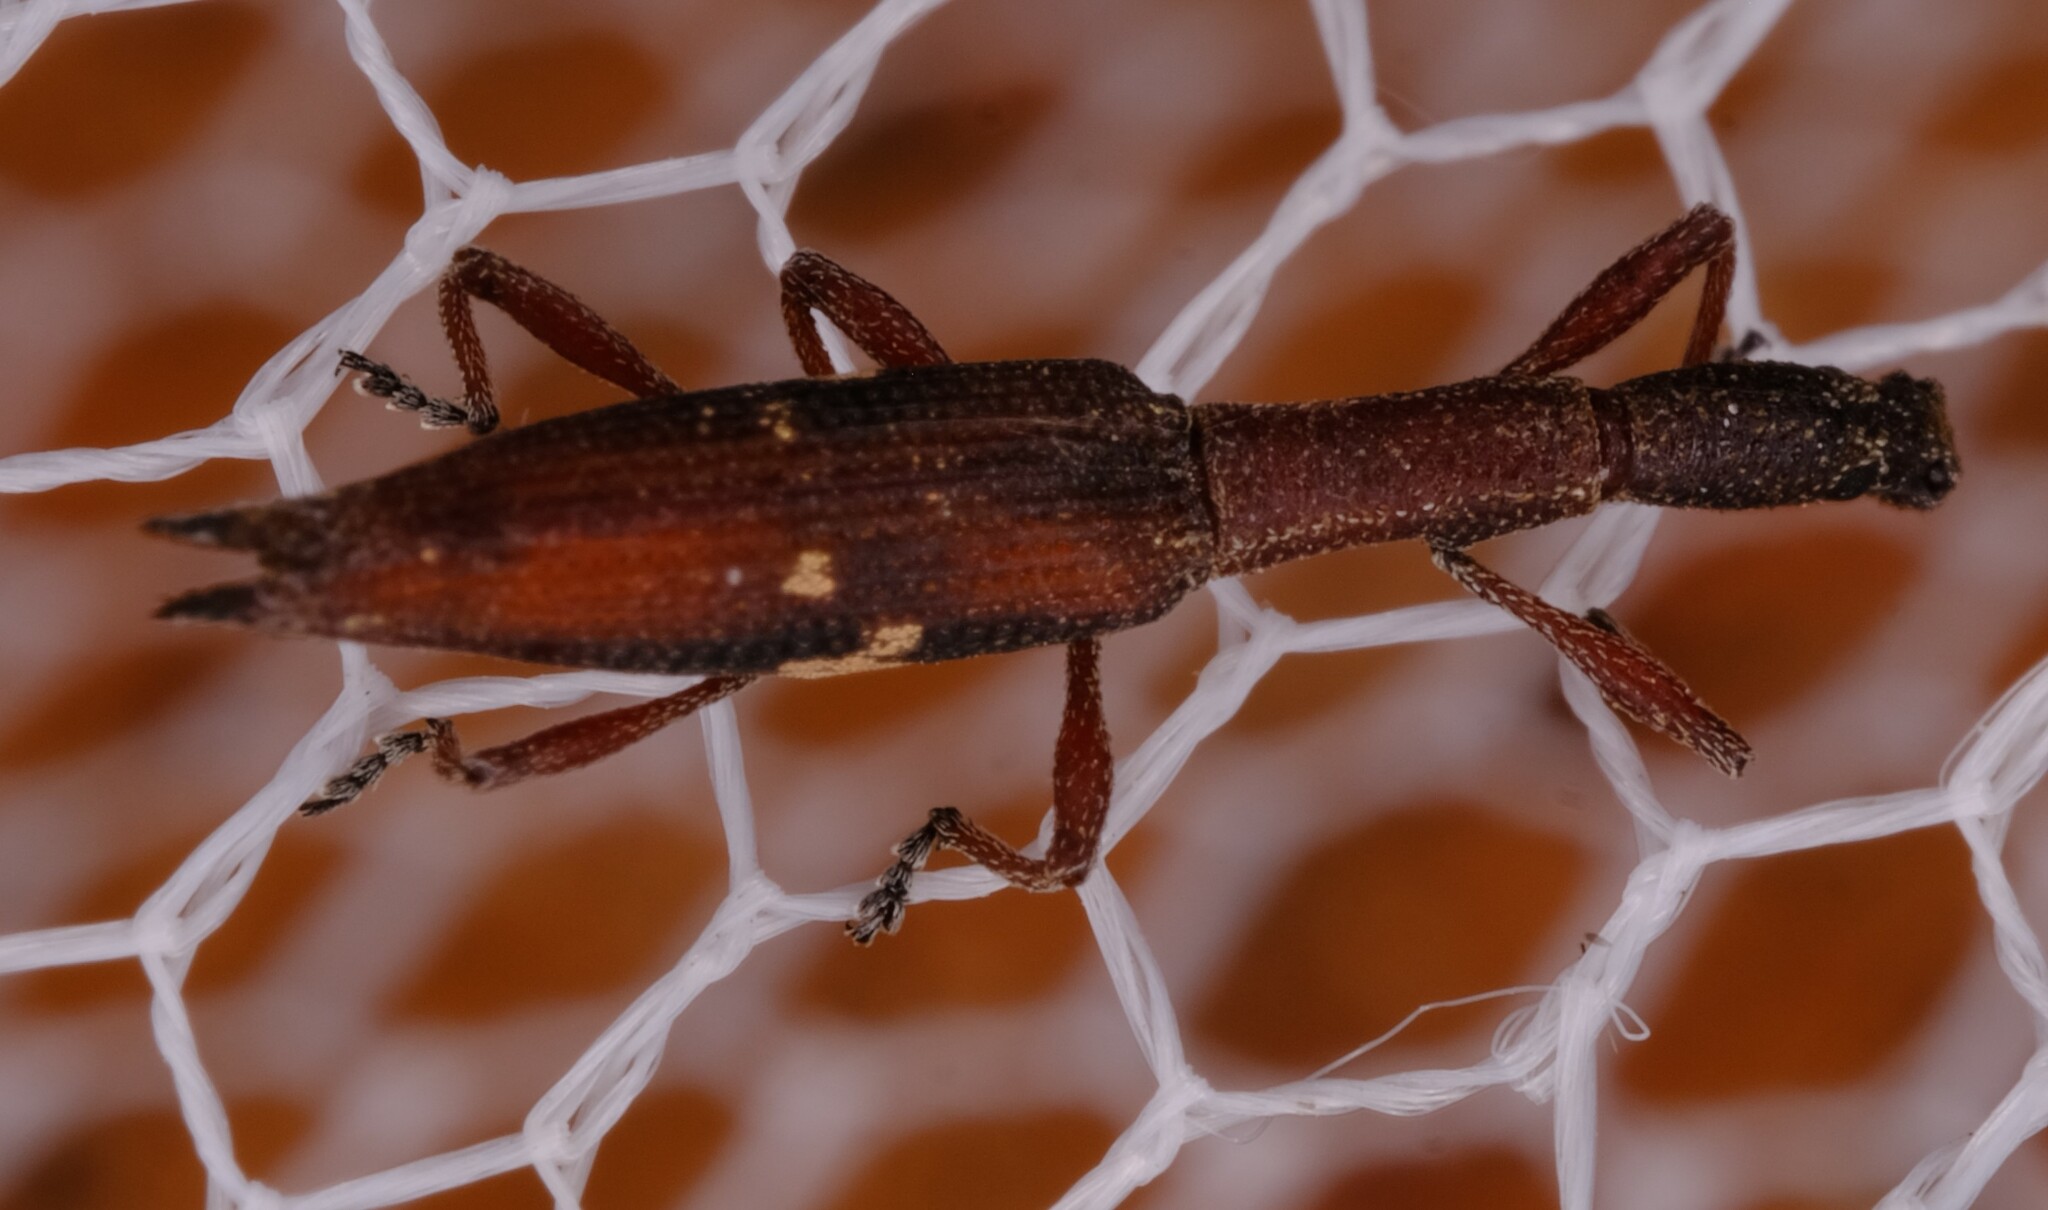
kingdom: Animalia
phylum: Arthropoda
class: Insecta
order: Coleoptera
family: Curculionidae
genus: Rhadinosomus
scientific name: Rhadinosomus lacordairei
